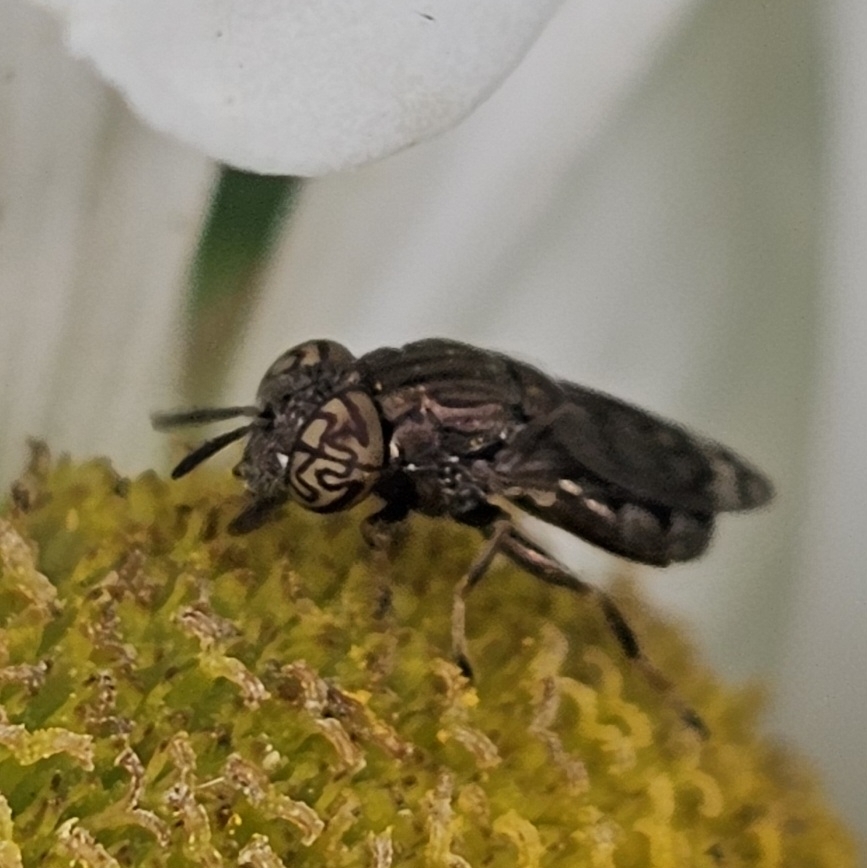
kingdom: Animalia
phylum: Arthropoda
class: Insecta
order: Diptera
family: Syrphidae
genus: Orthonevra
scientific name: Orthonevra nitida
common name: Wavy mucksucker
